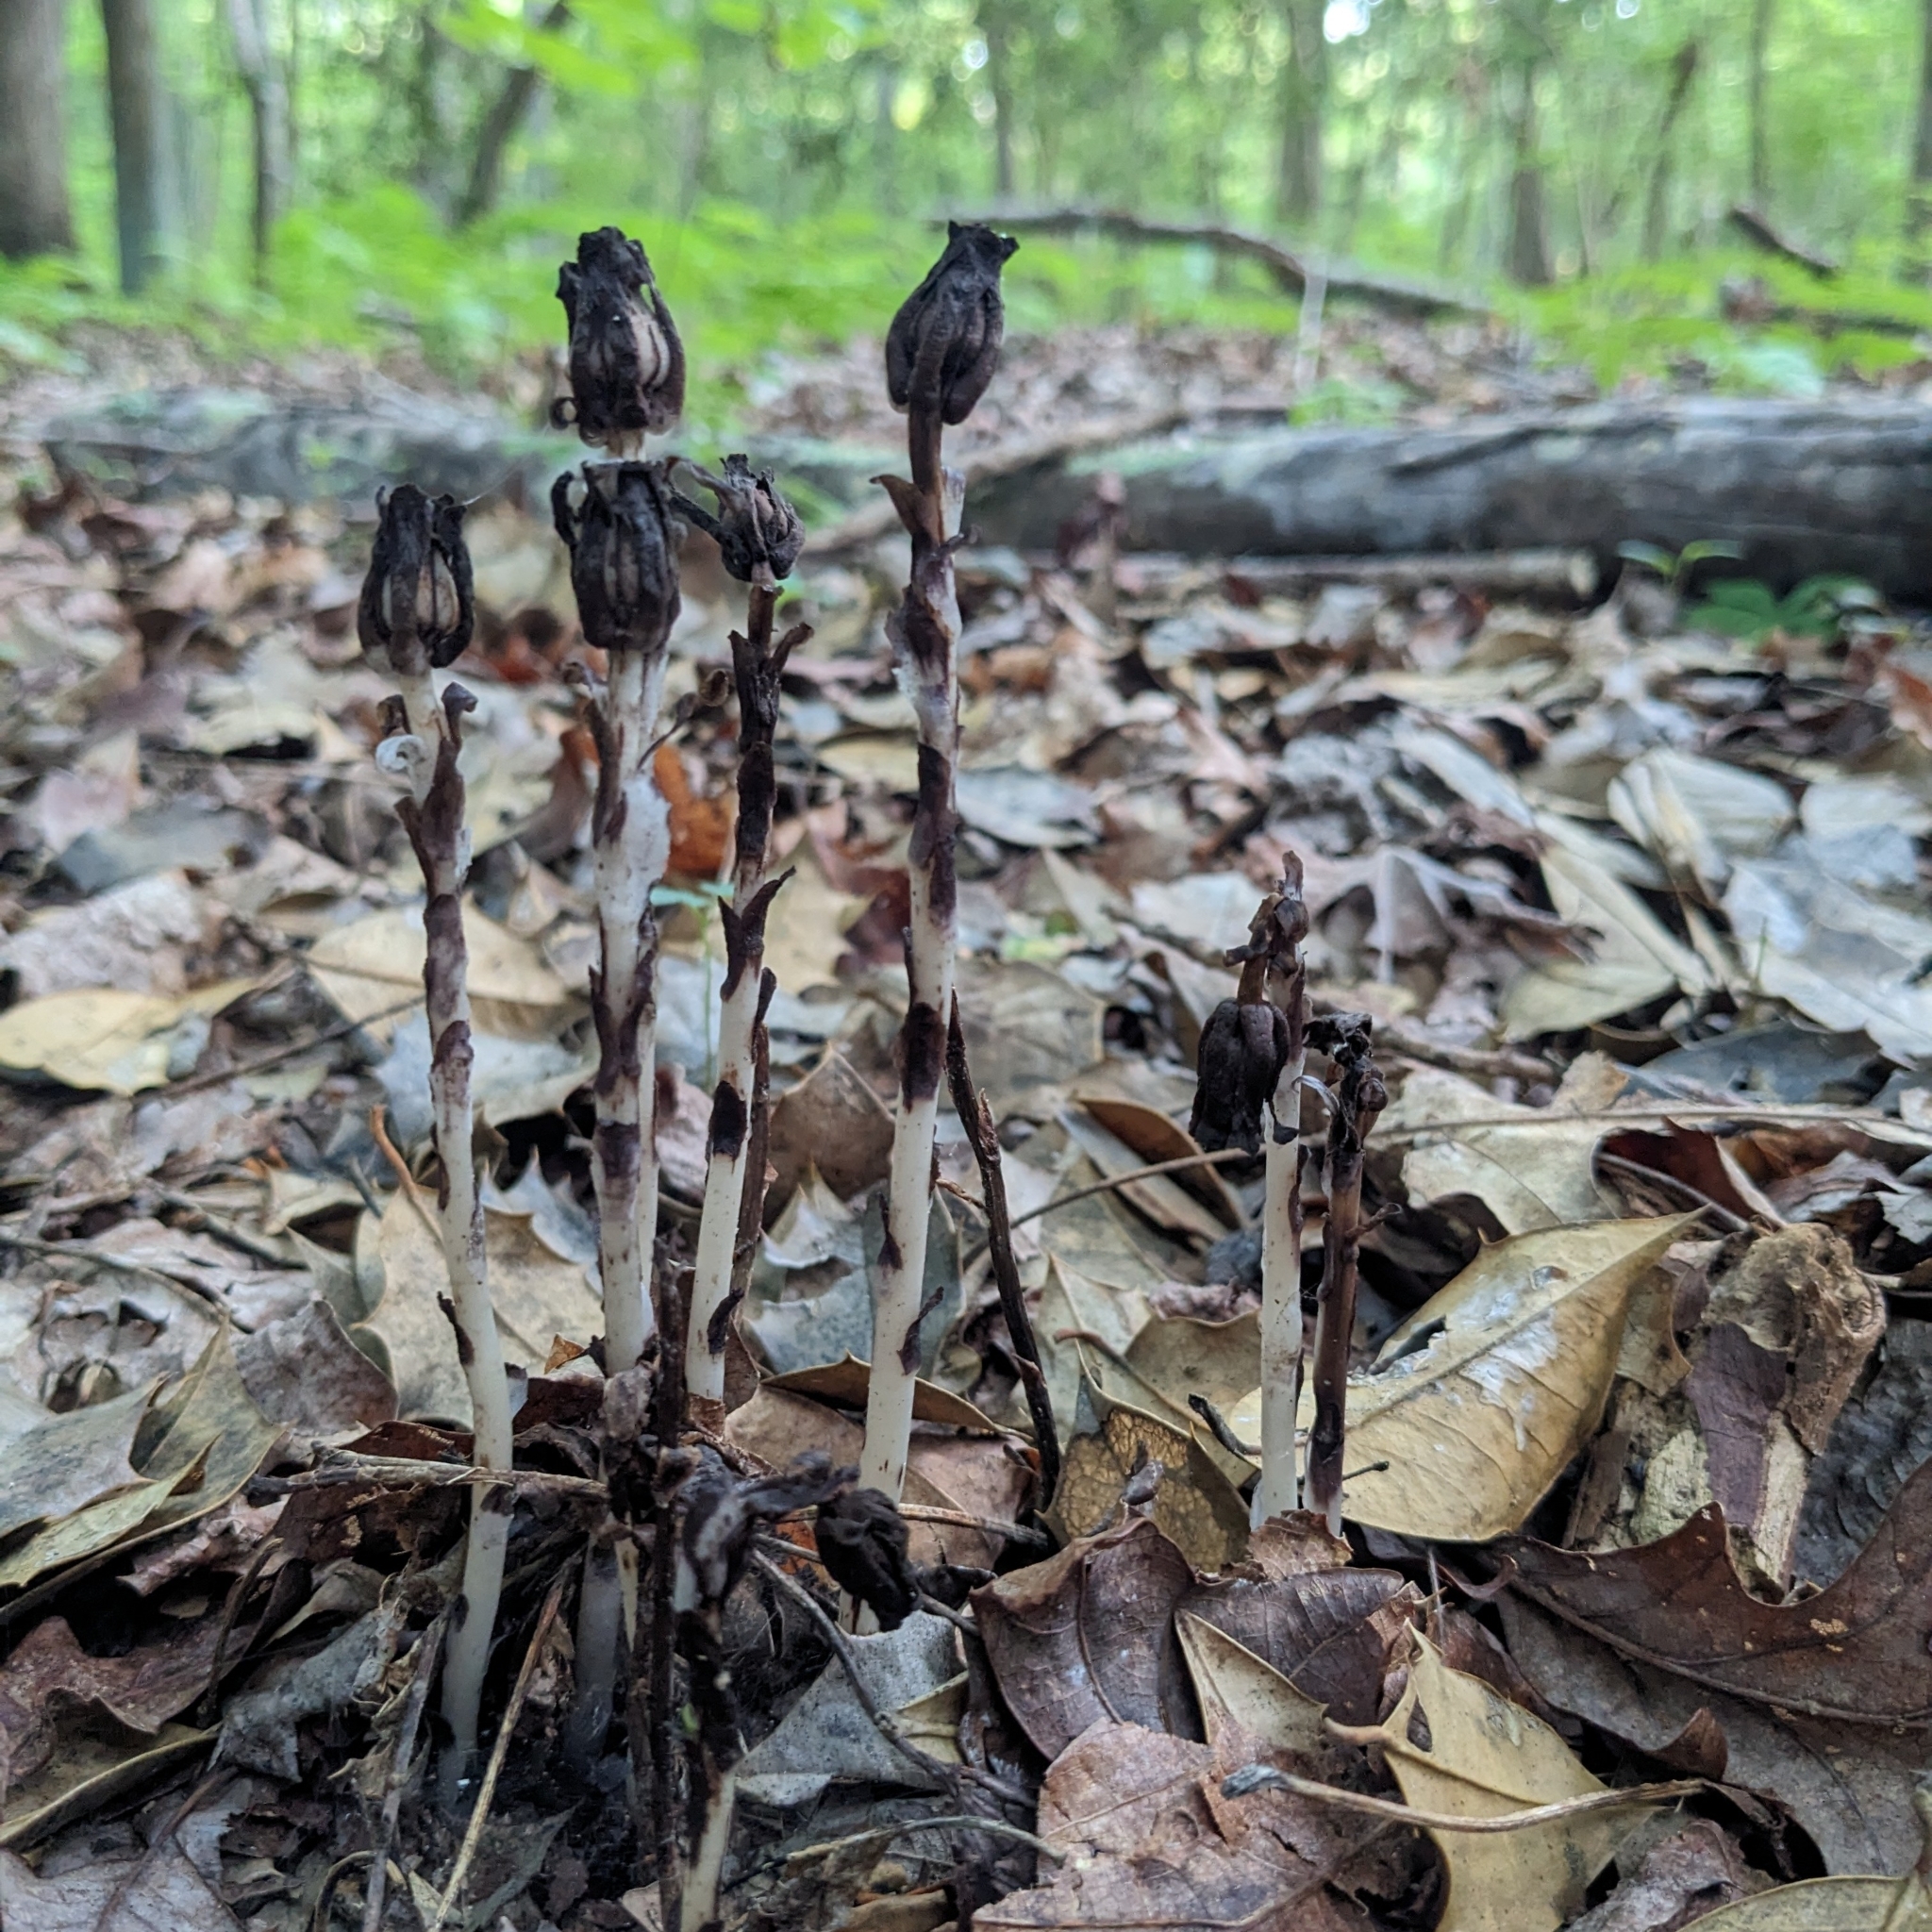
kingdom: Plantae
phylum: Tracheophyta
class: Magnoliopsida
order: Ericales
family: Ericaceae
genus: Monotropa
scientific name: Monotropa uniflora
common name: Convulsion root
